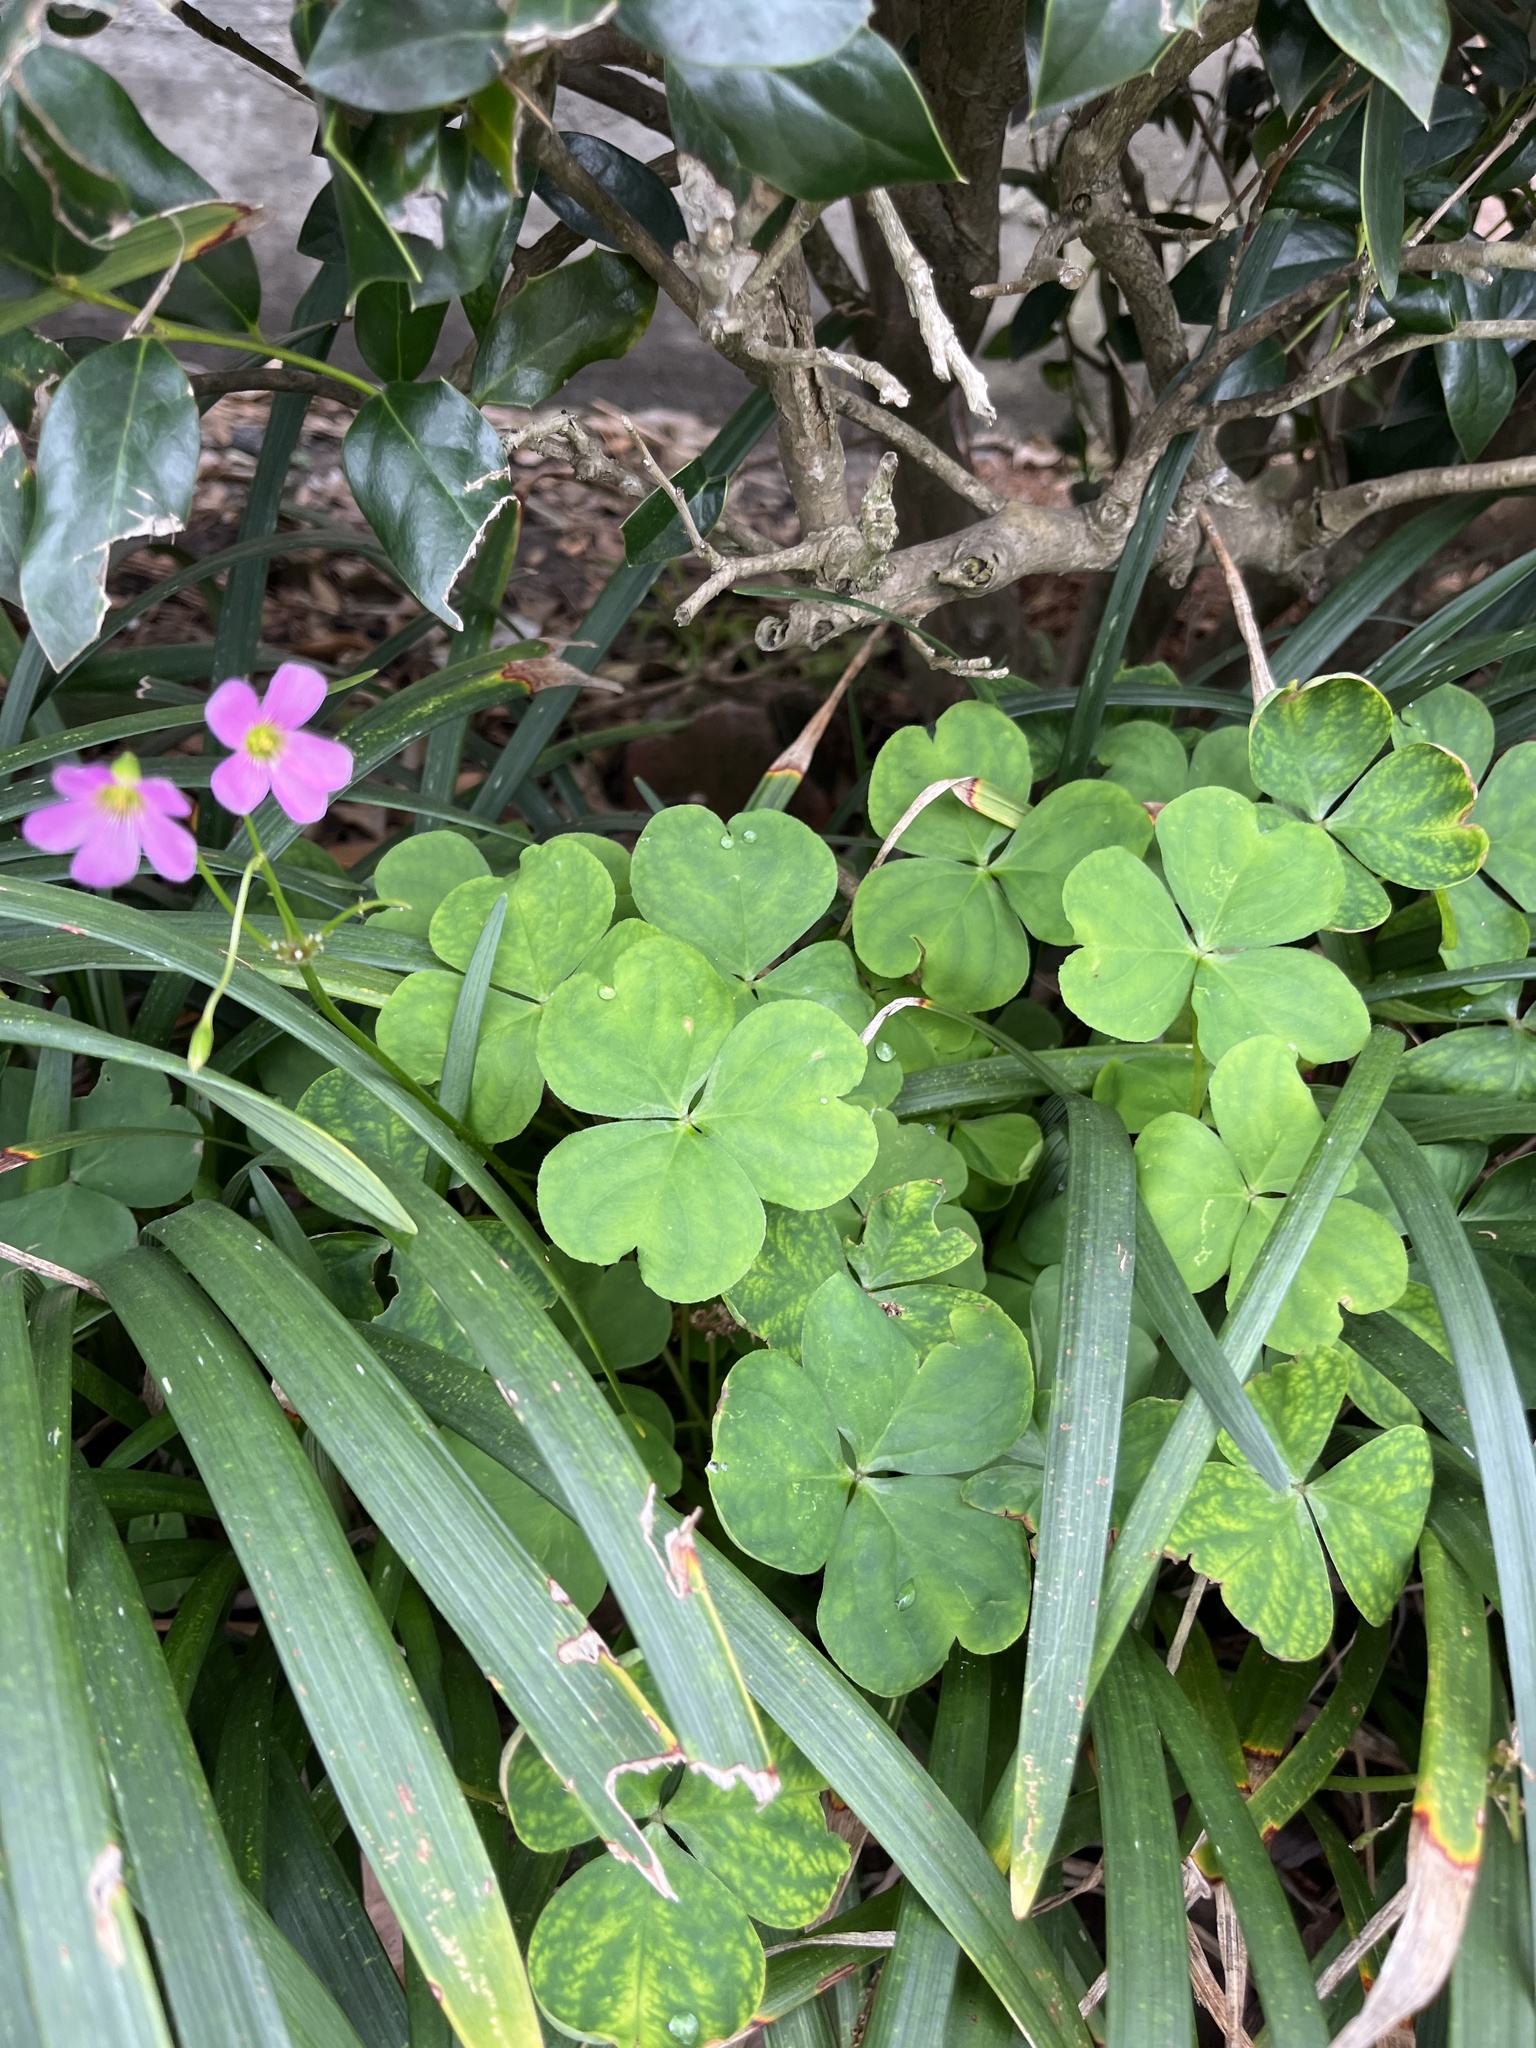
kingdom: Plantae
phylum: Tracheophyta
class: Magnoliopsida
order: Oxalidales
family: Oxalidaceae
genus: Oxalis
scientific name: Oxalis debilis
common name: Large-flowered pink-sorrel
